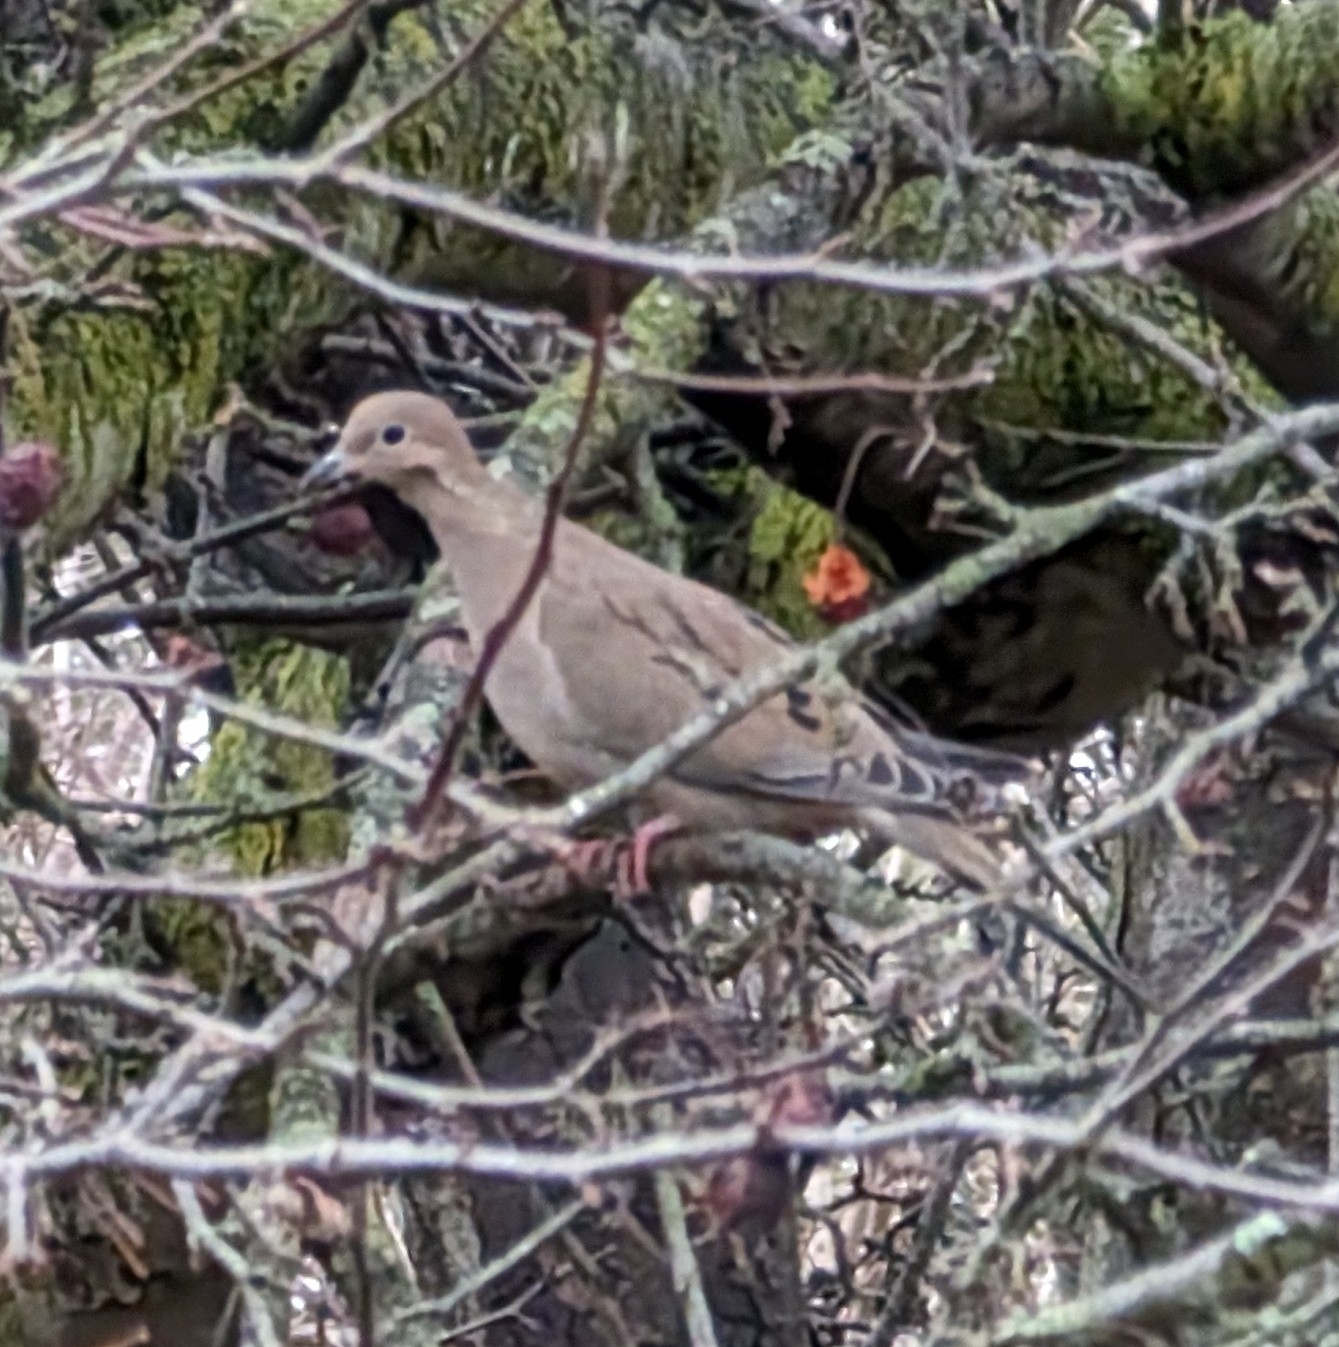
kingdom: Animalia
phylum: Chordata
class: Aves
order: Columbiformes
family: Columbidae
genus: Zenaida
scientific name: Zenaida macroura
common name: Mourning dove
